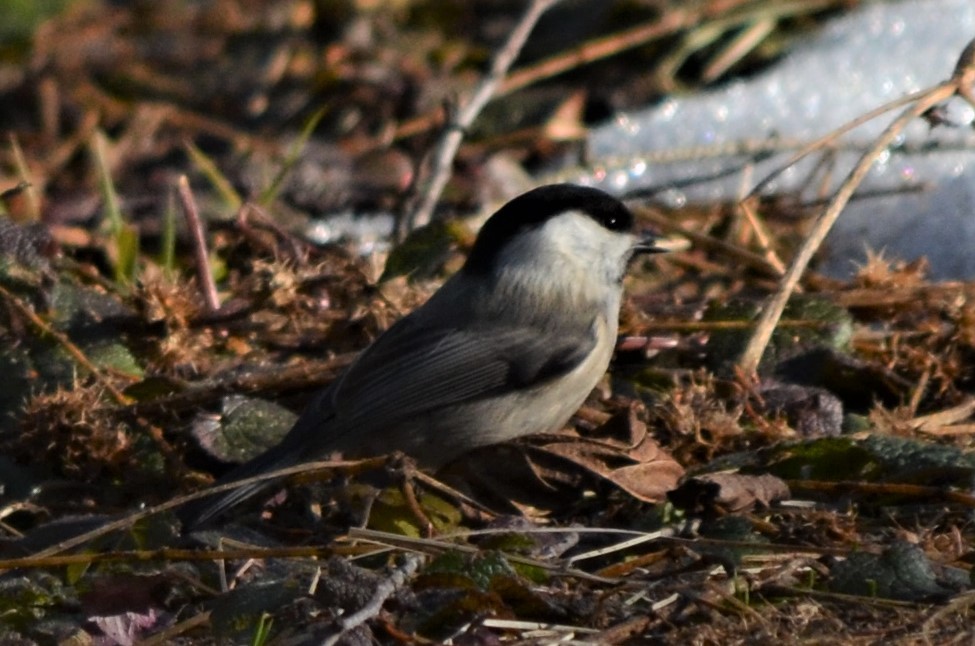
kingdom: Animalia
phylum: Chordata
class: Aves
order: Passeriformes
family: Paridae
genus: Poecile
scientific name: Poecile montanus
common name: Willow tit
